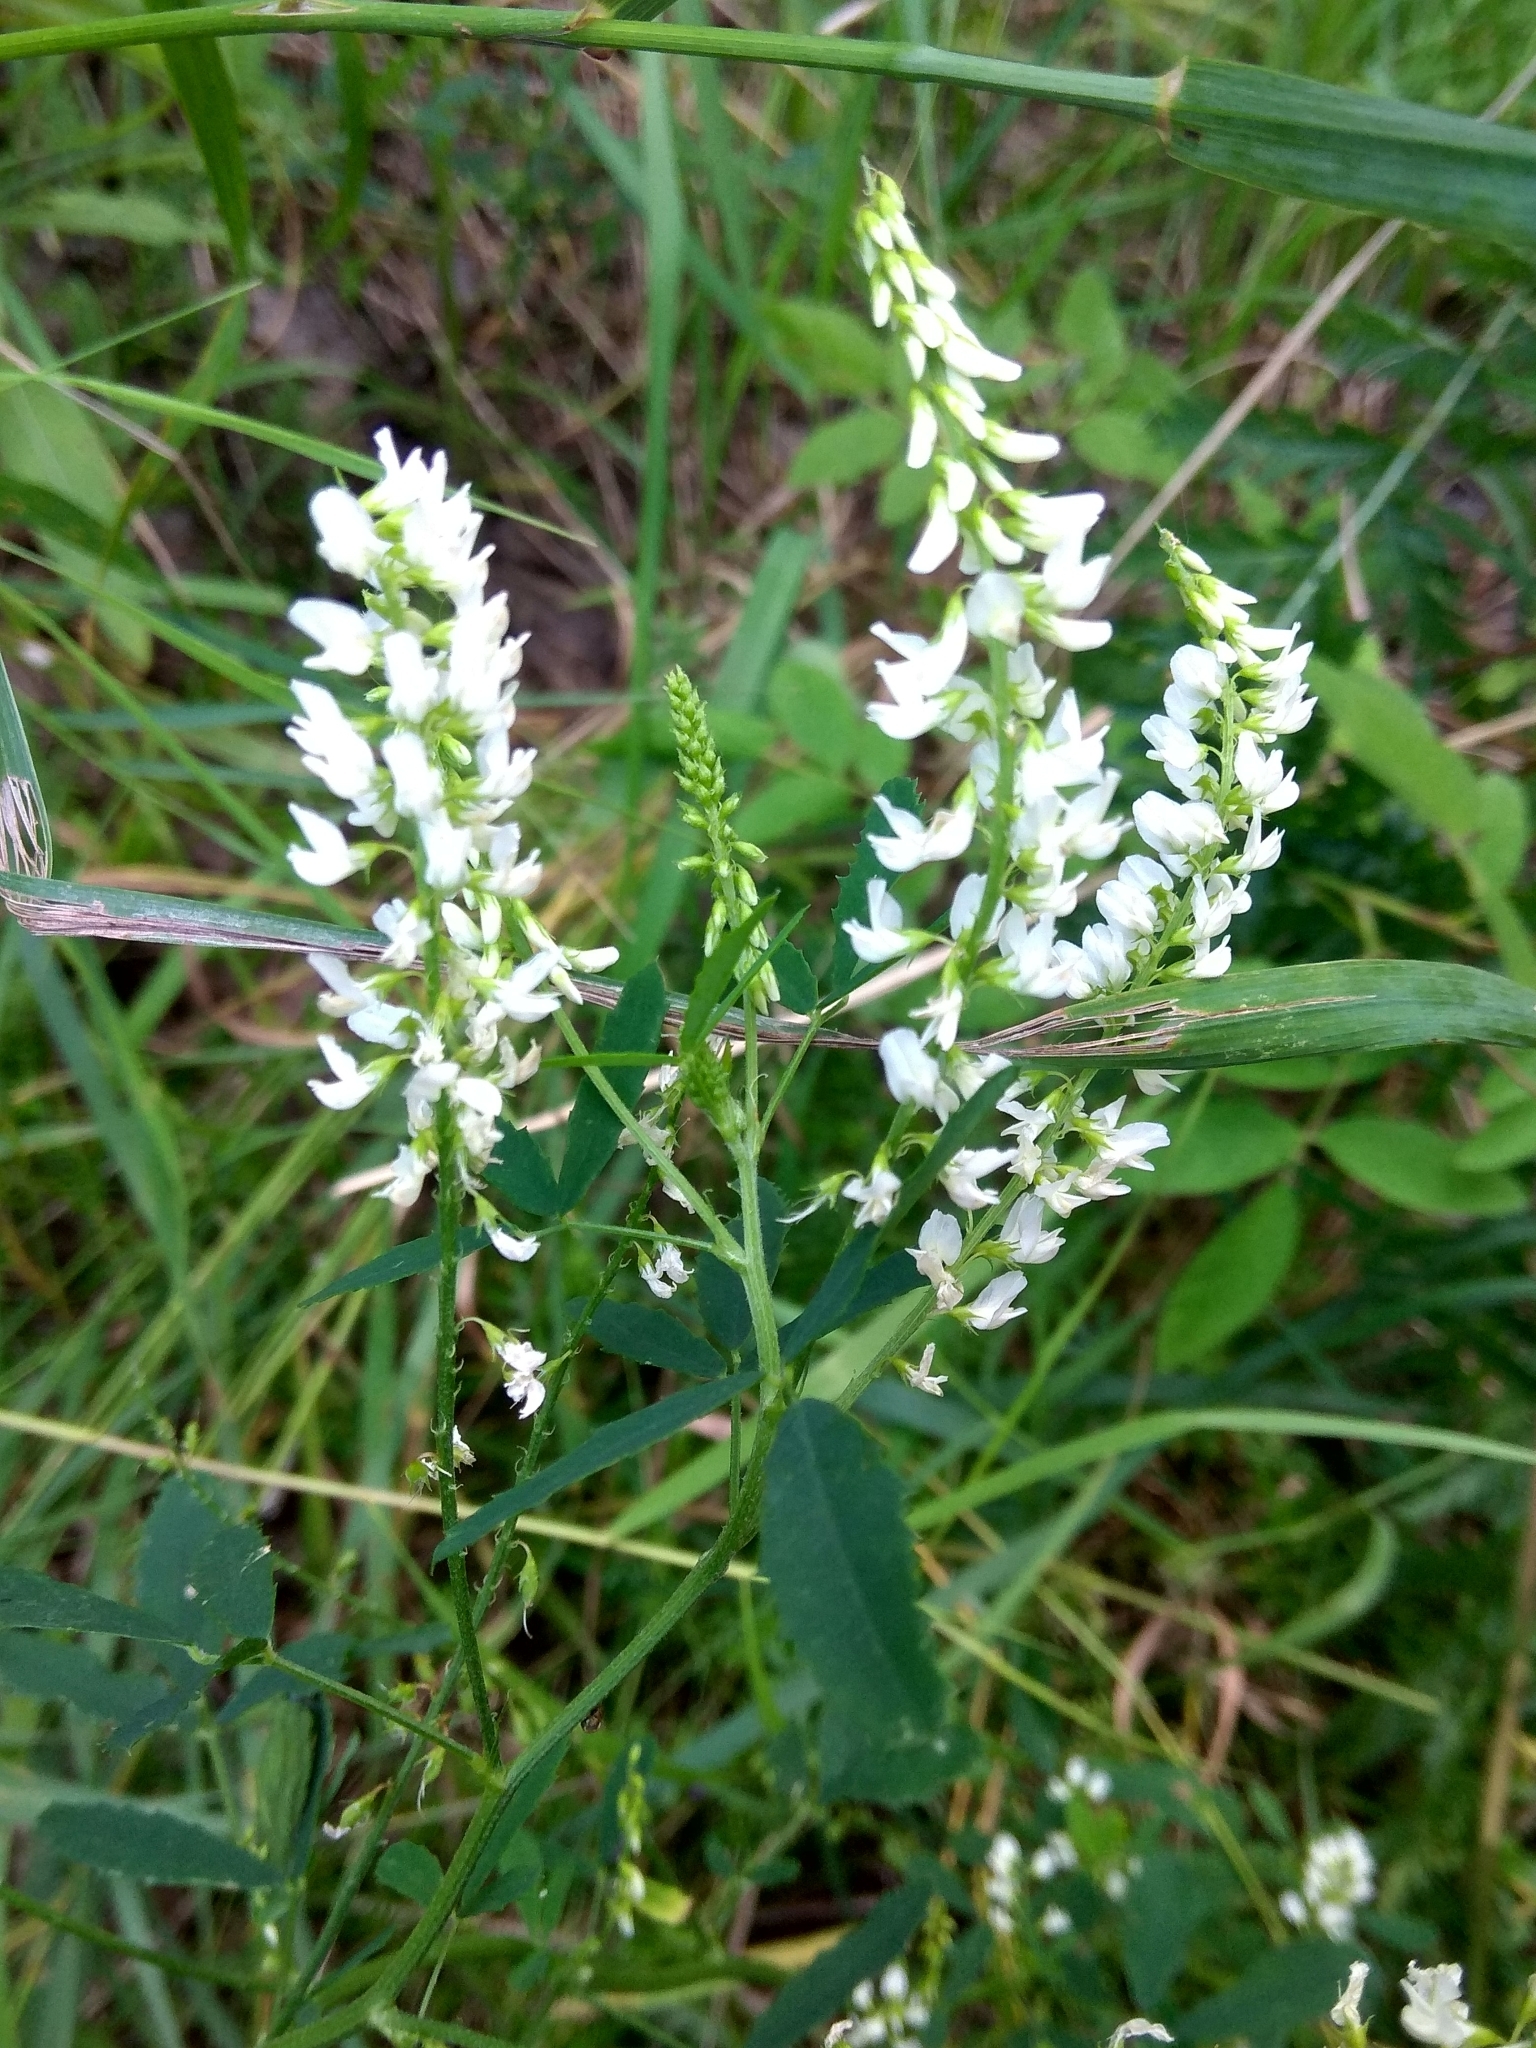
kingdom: Plantae
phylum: Tracheophyta
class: Magnoliopsida
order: Fabales
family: Fabaceae
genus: Melilotus
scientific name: Melilotus albus
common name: White melilot
